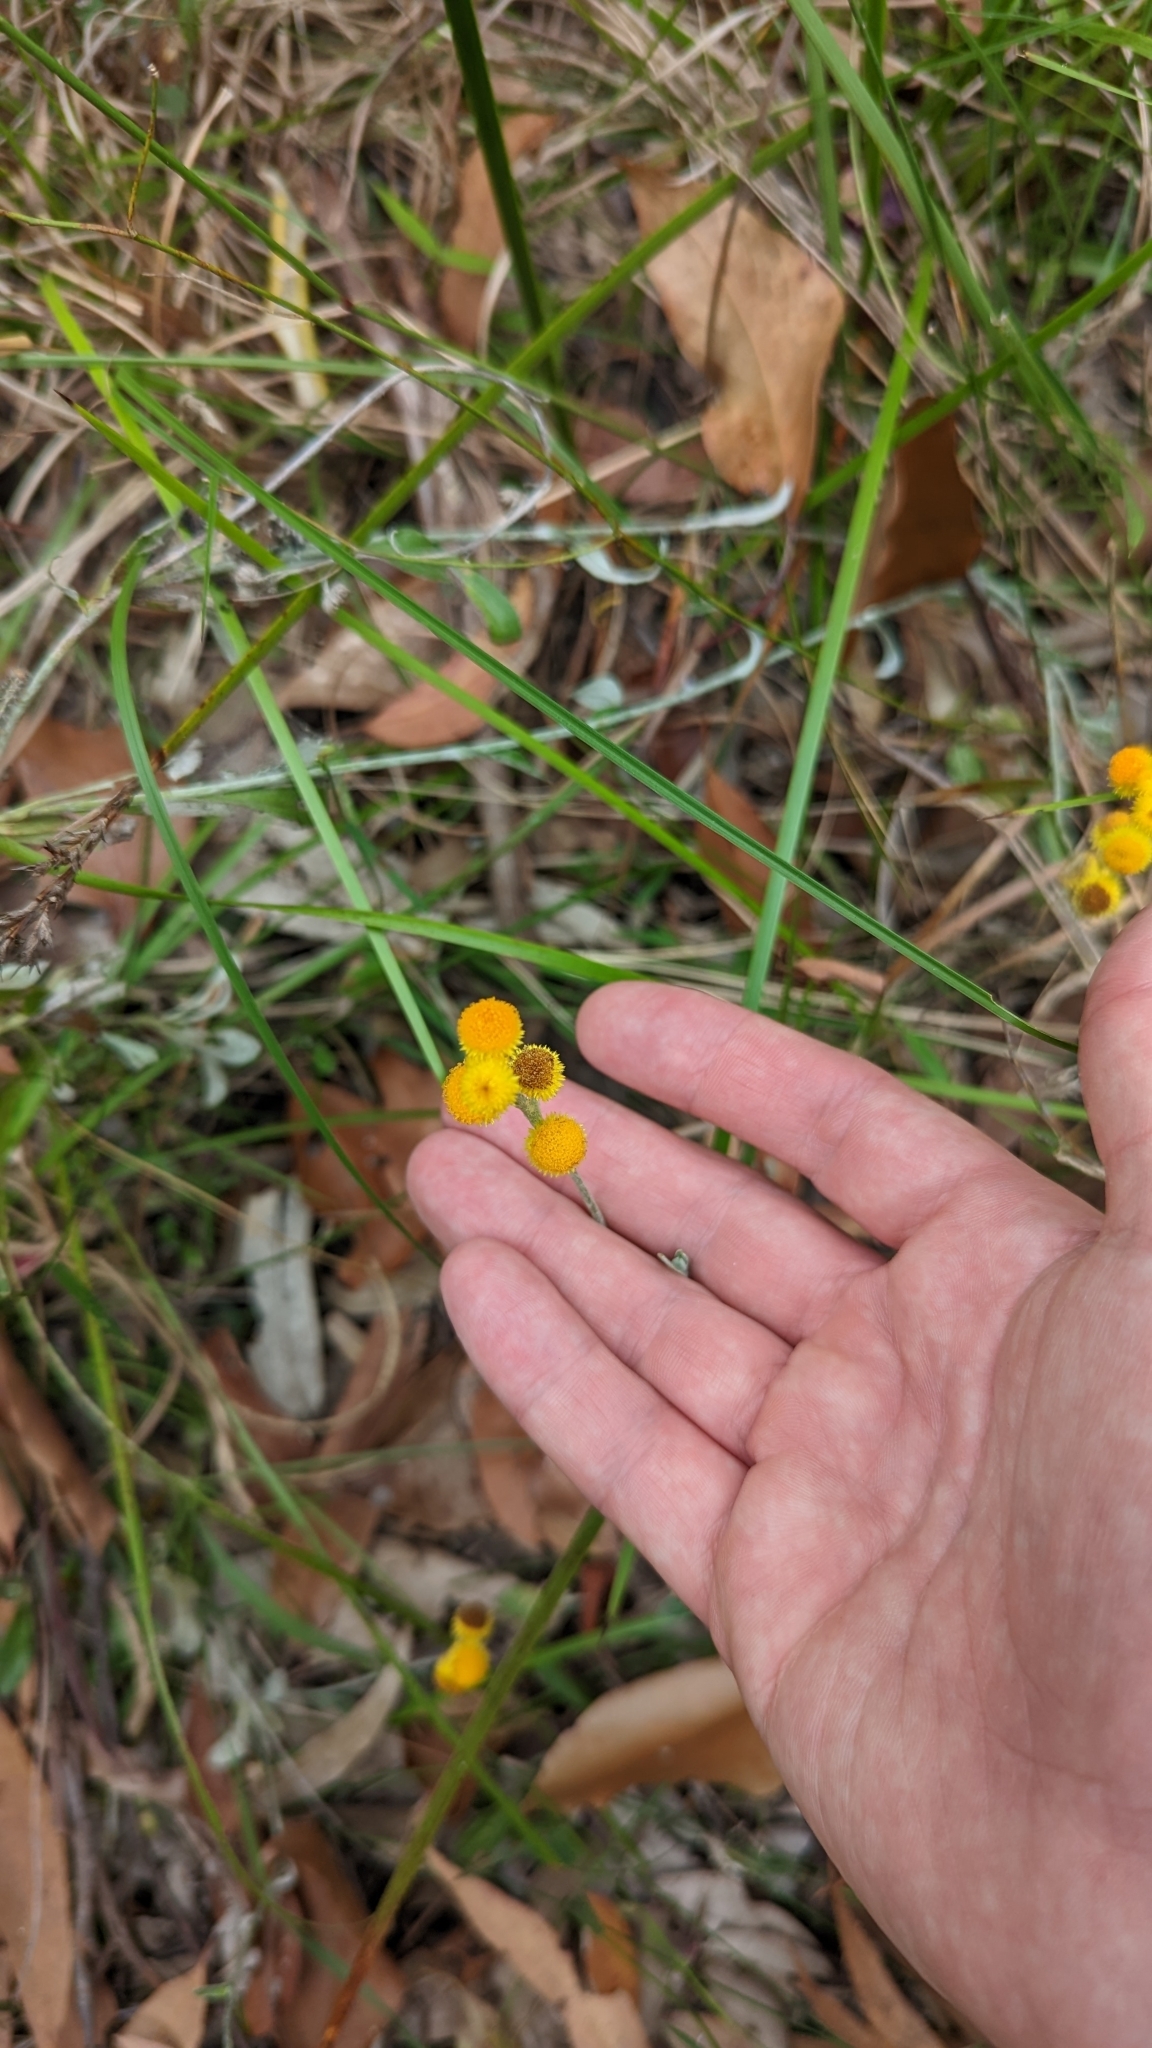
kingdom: Plantae
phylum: Tracheophyta
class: Magnoliopsida
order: Asterales
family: Asteraceae
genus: Chrysocephalum
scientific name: Chrysocephalum apiculatum
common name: Common everlasting
